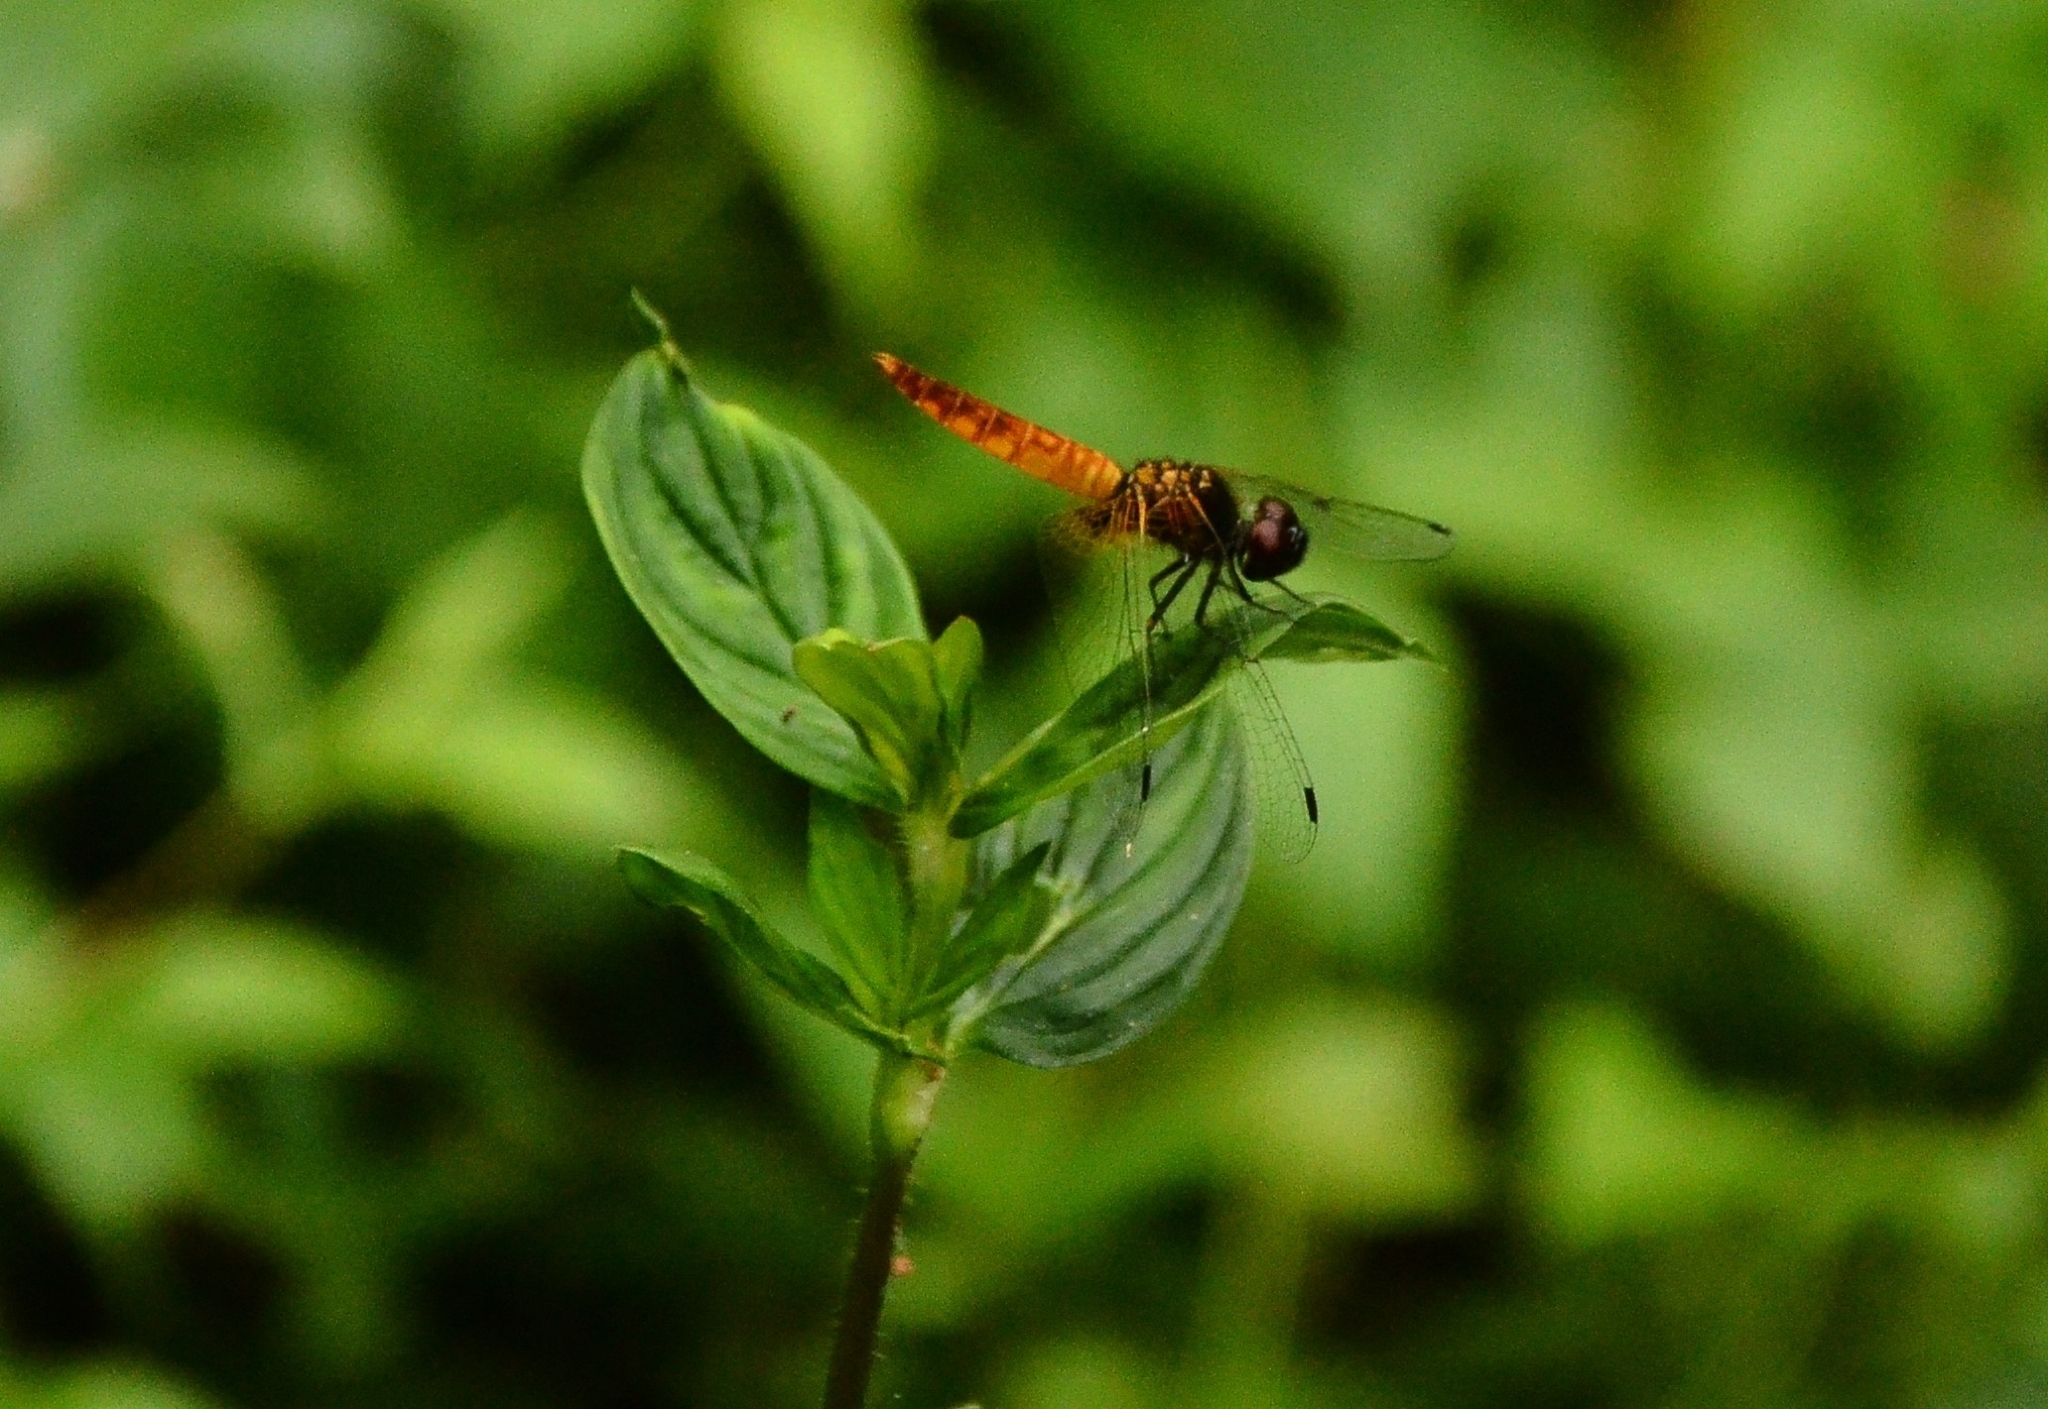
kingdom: Animalia
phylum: Arthropoda
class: Insecta
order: Odonata
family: Libellulidae
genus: Aethriamanta
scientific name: Aethriamanta brevipennis
